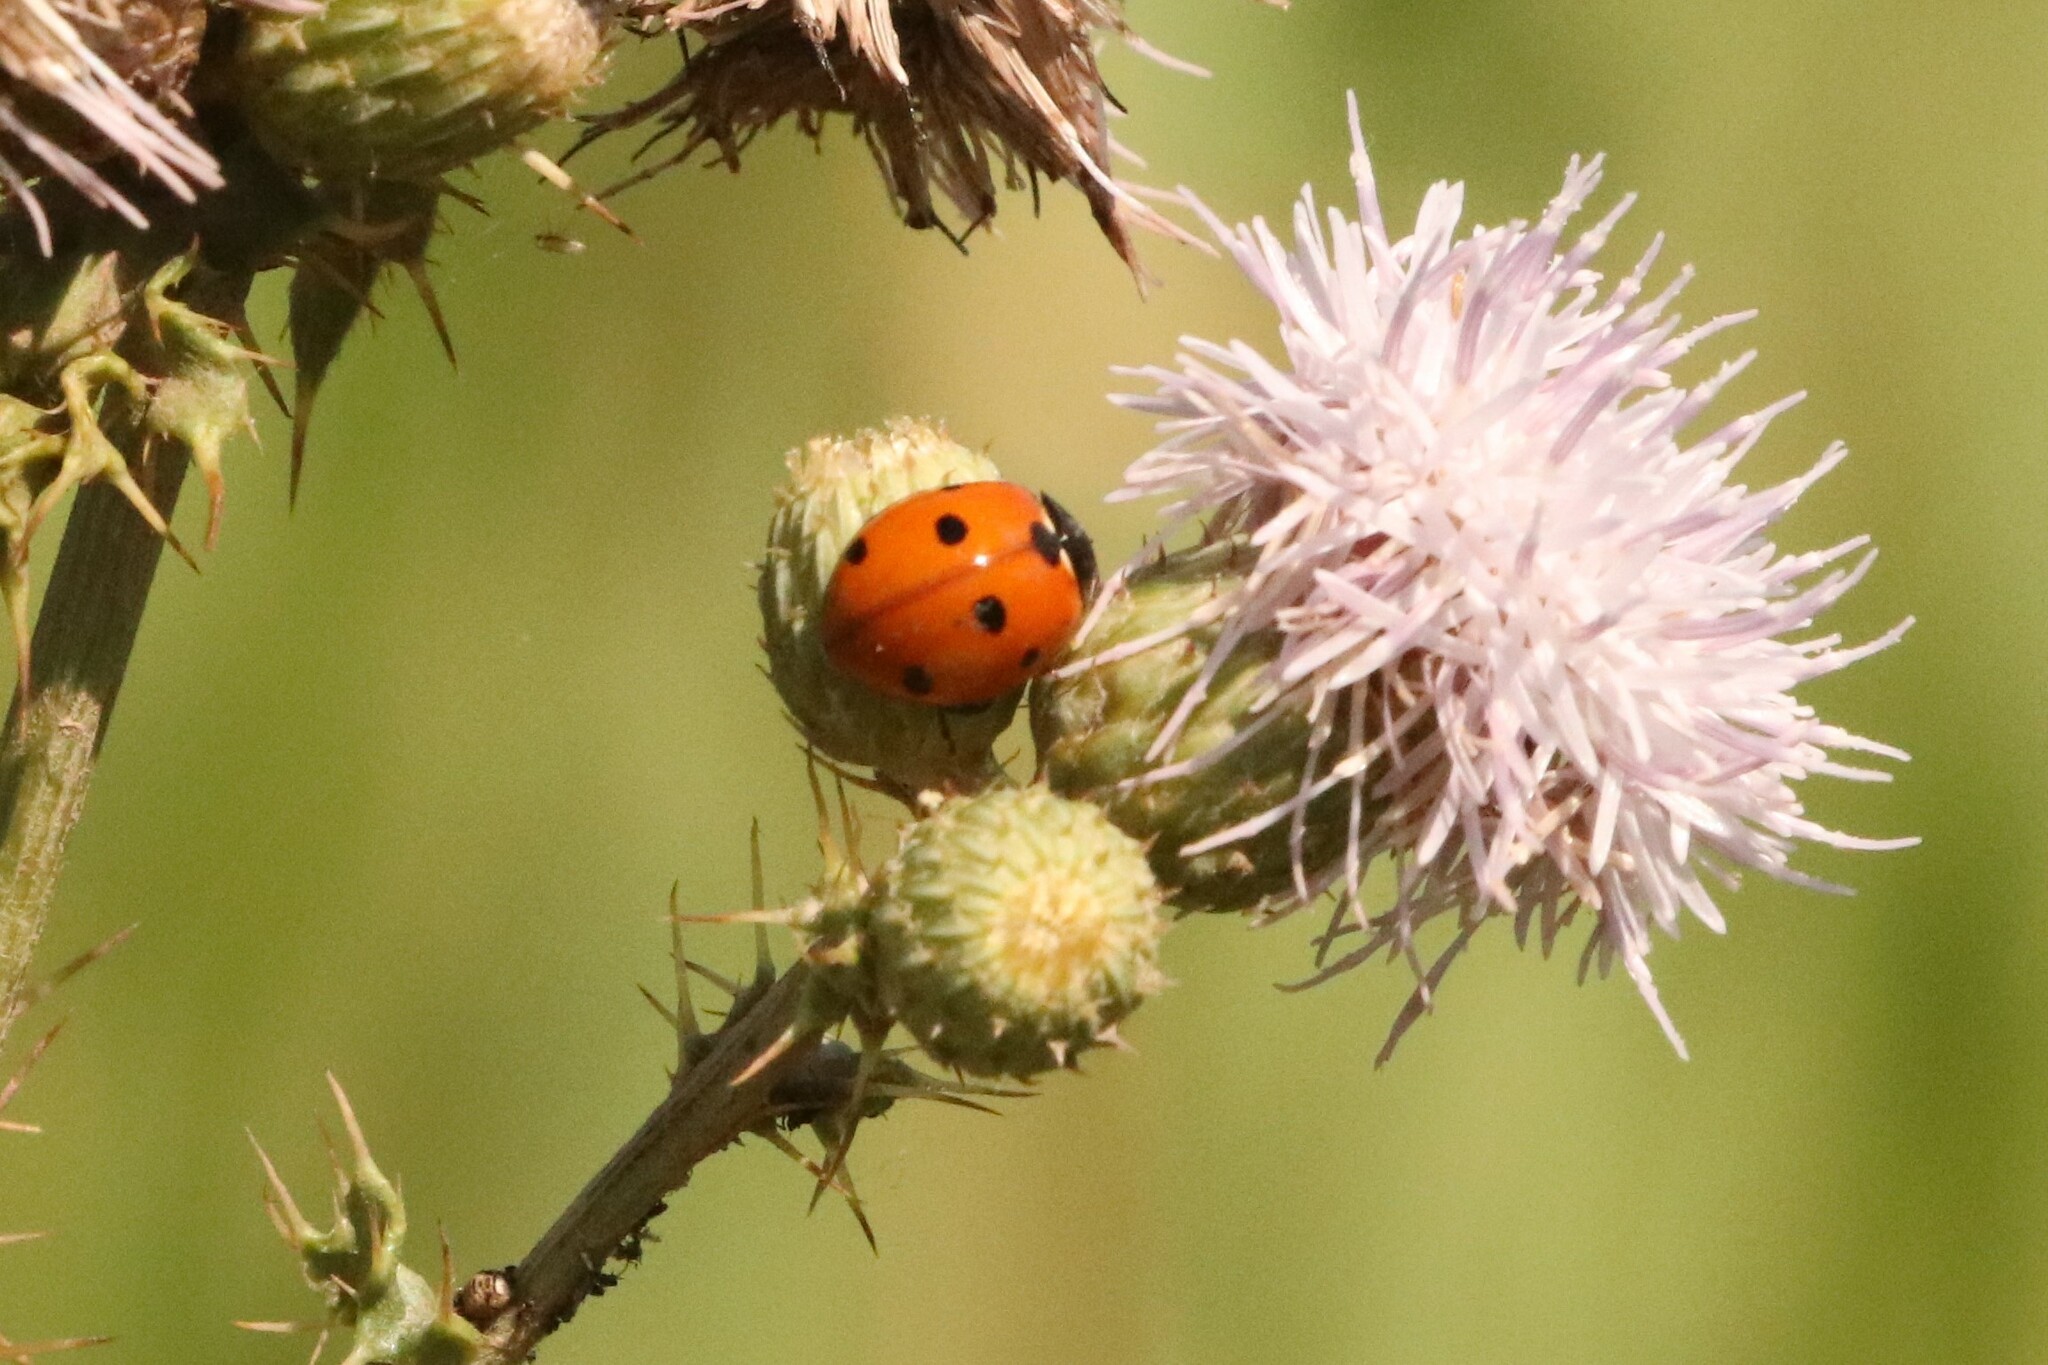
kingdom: Animalia
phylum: Arthropoda
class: Insecta
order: Coleoptera
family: Coccinellidae
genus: Coccinella
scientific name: Coccinella septempunctata
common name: Sevenspotted lady beetle
